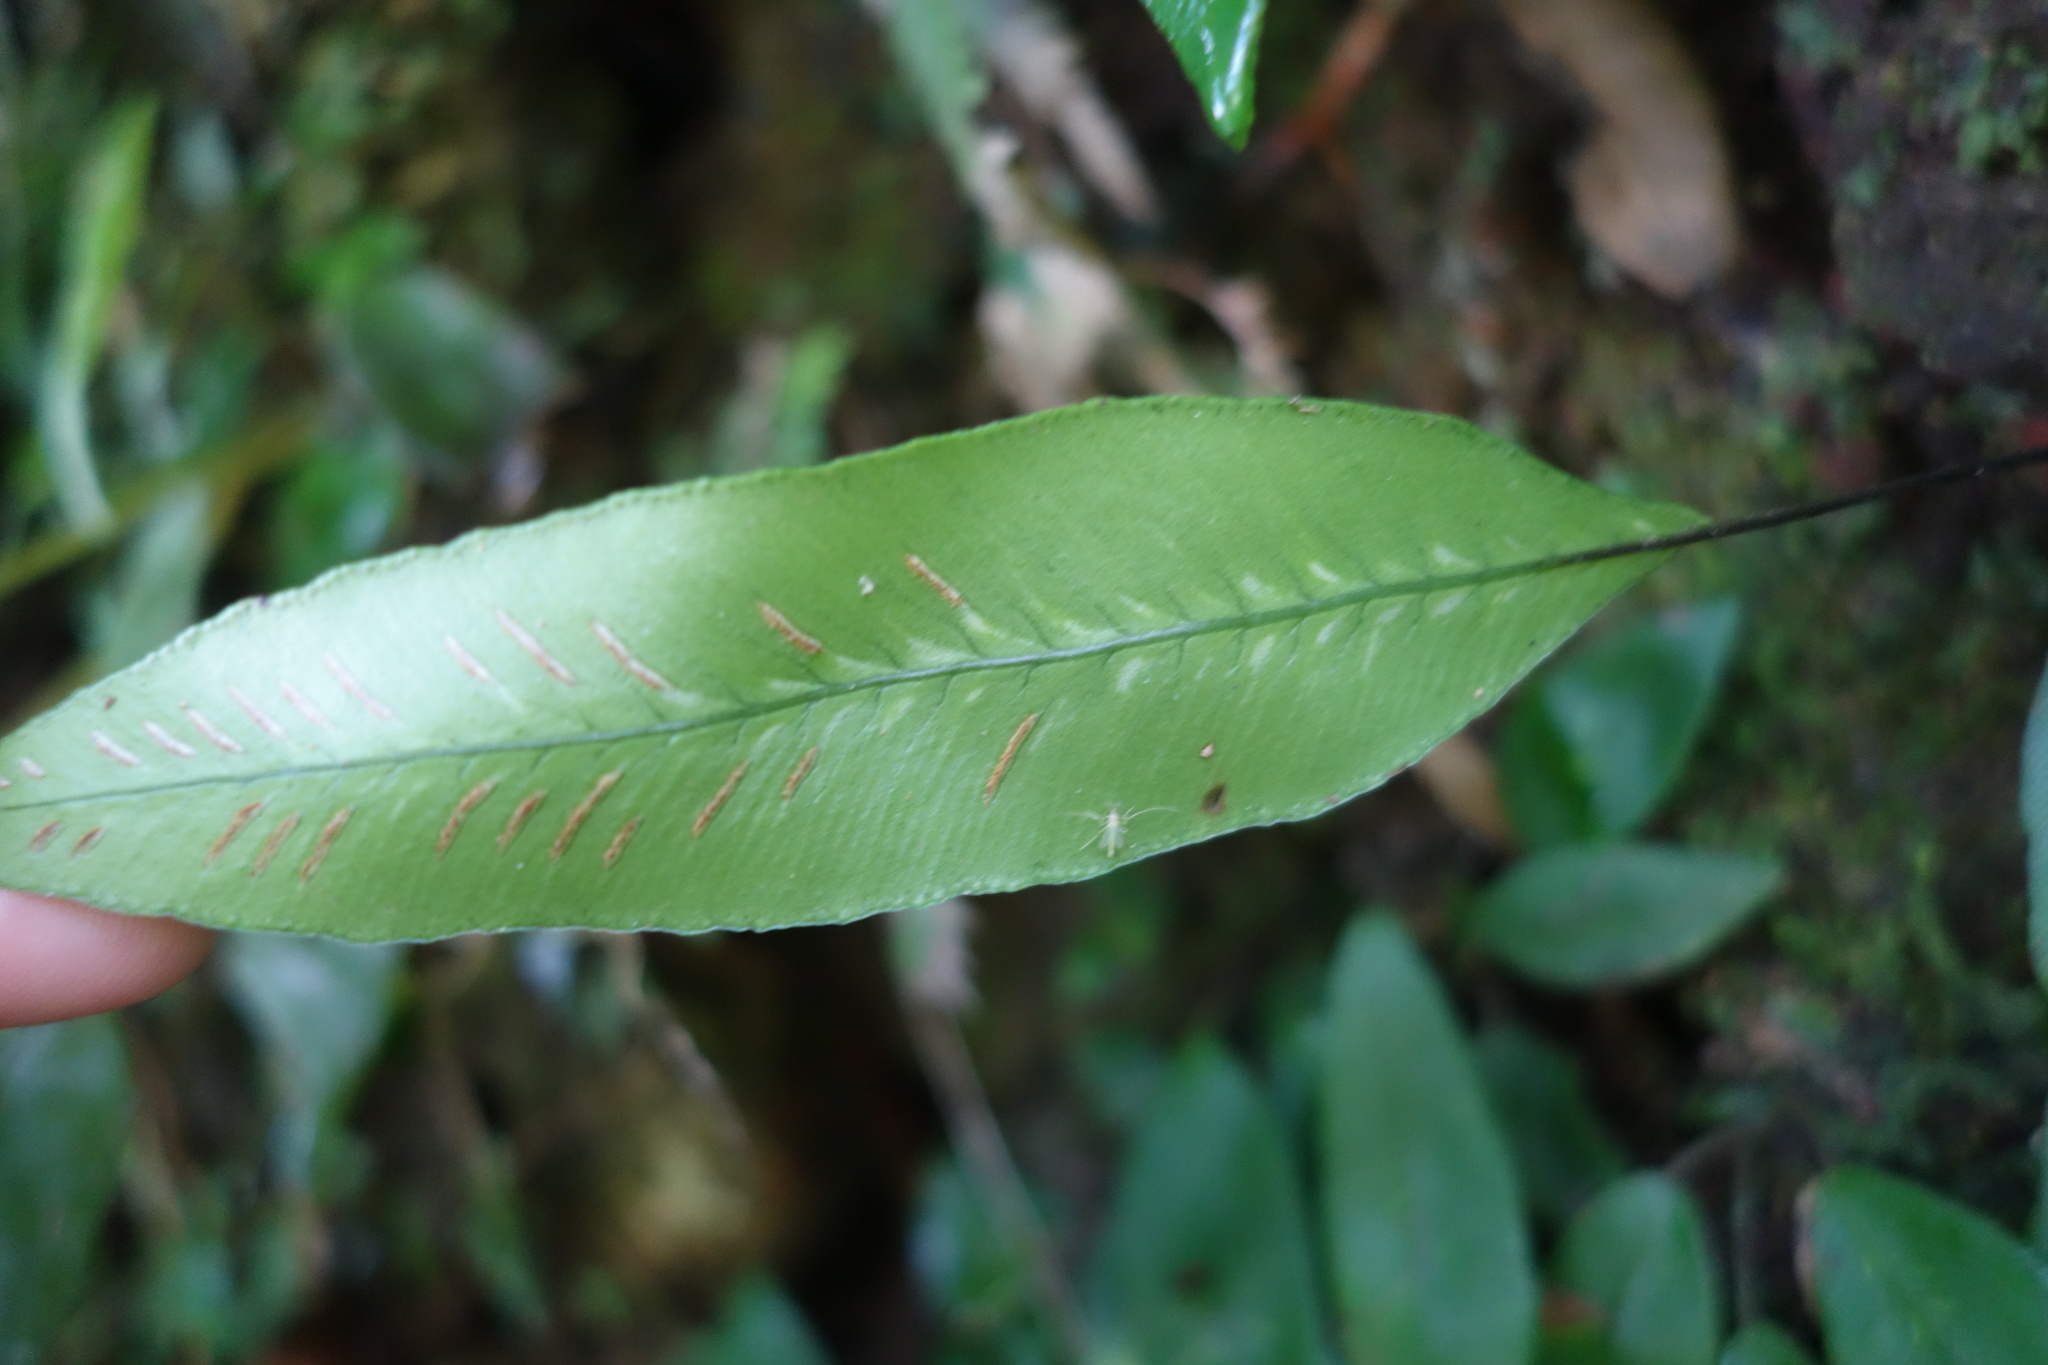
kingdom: Plantae
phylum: Tracheophyta
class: Polypodiopsida
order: Polypodiales
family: Athyriaceae
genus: Deparia
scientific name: Deparia lancea
